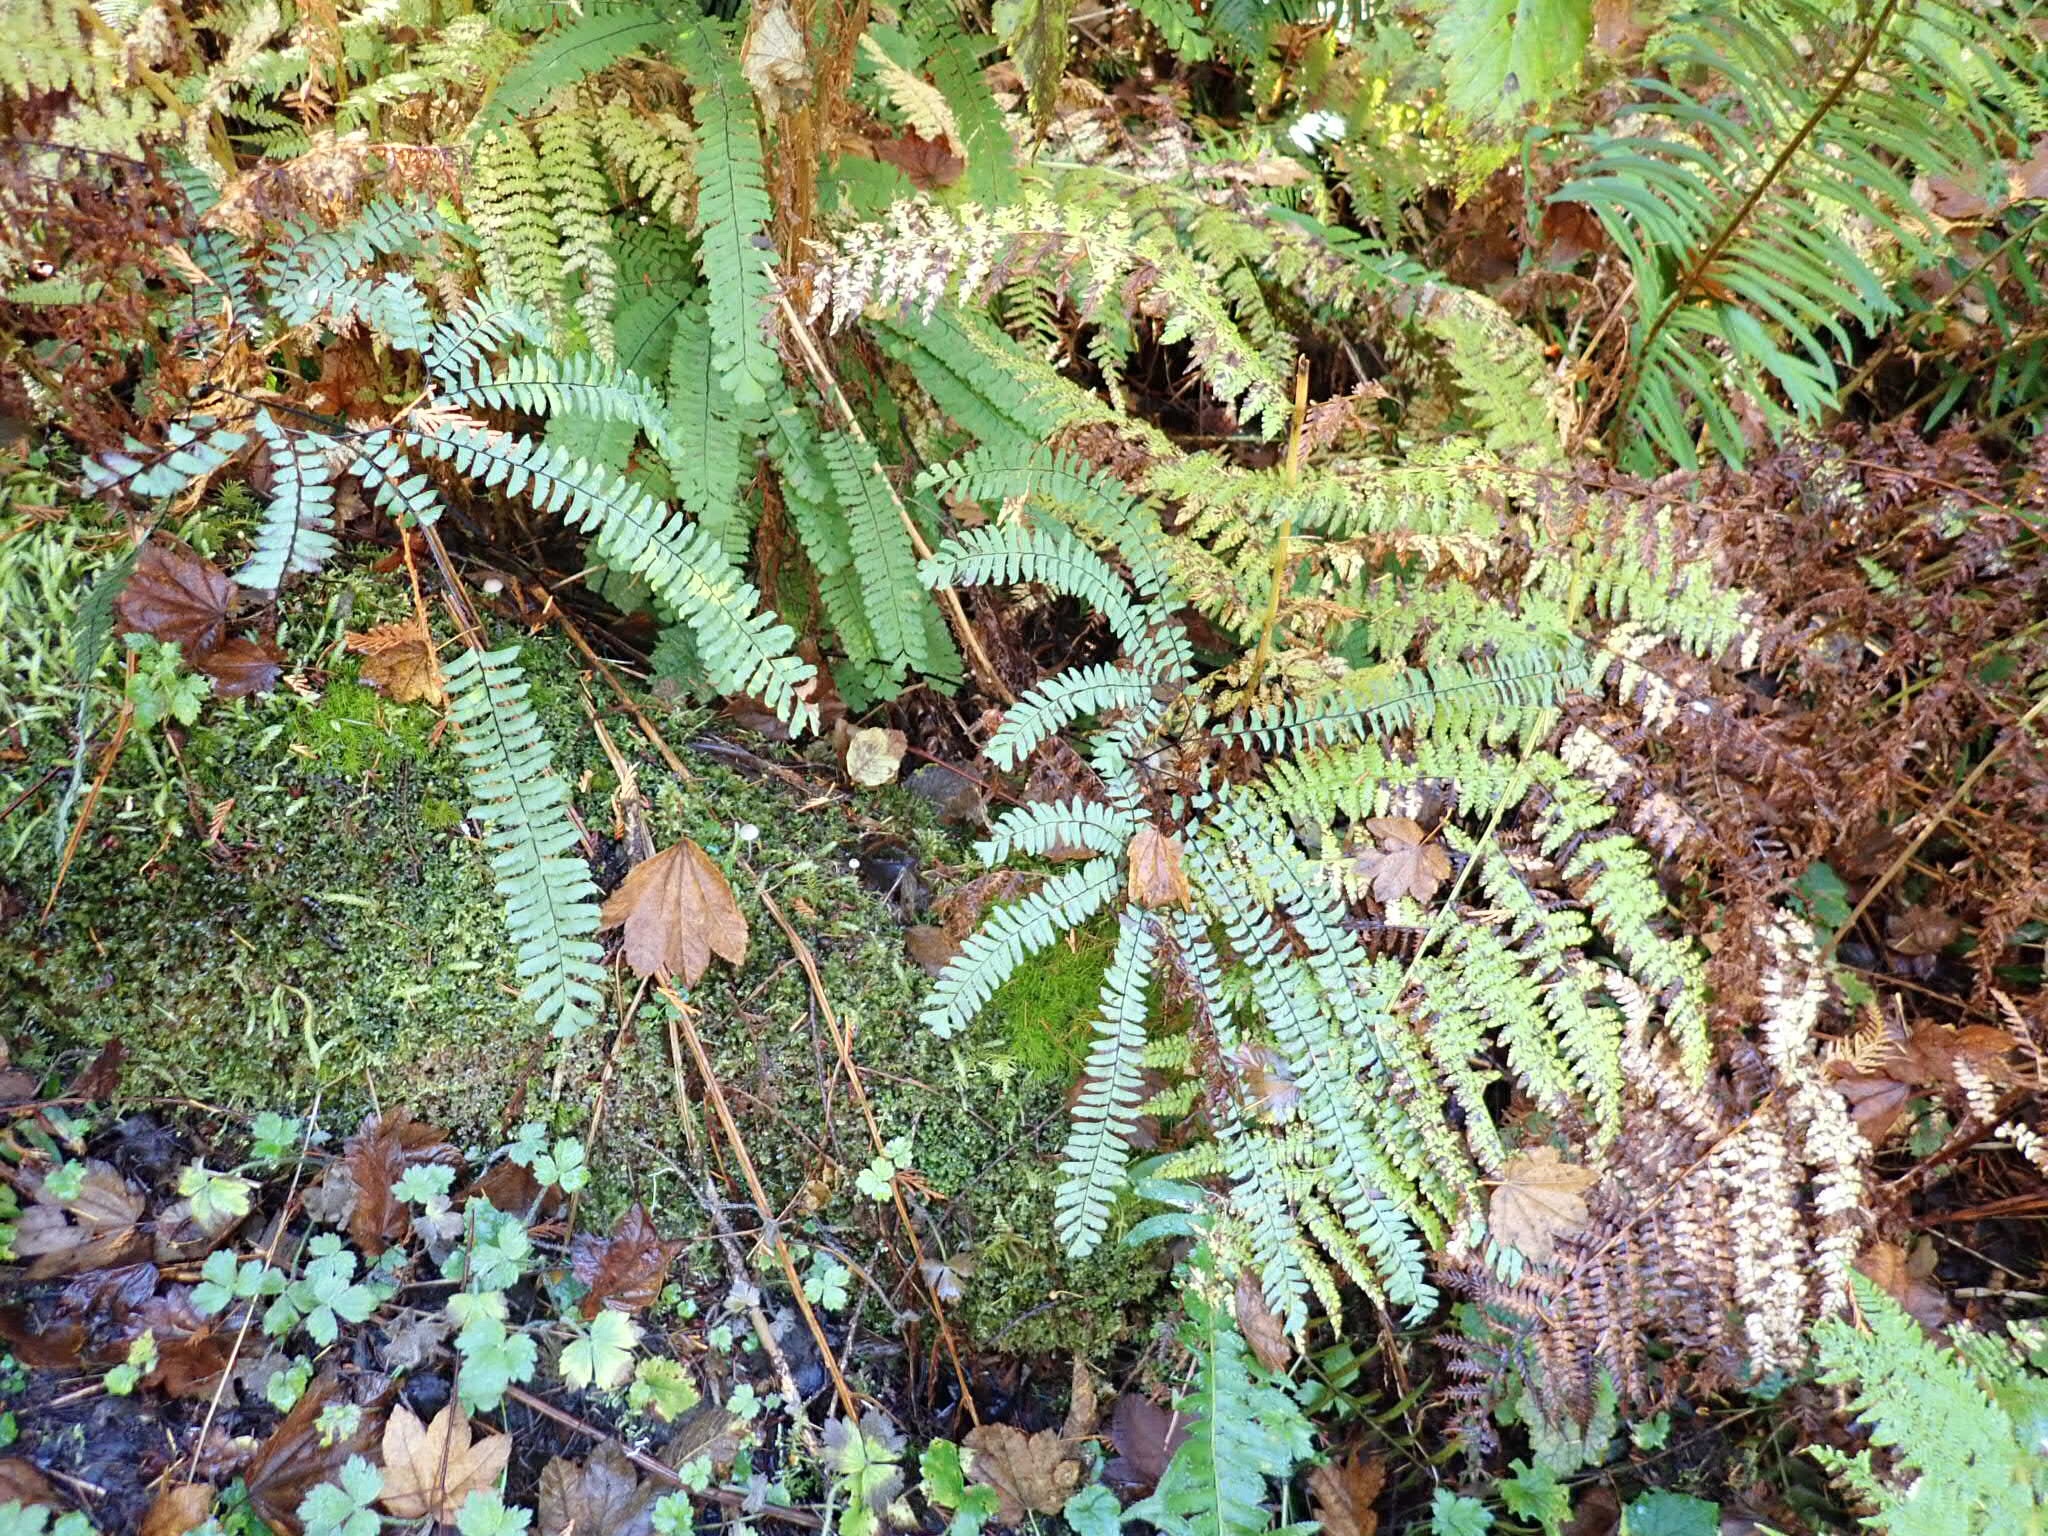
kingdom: Plantae
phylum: Tracheophyta
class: Polypodiopsida
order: Polypodiales
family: Pteridaceae
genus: Adiantum
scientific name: Adiantum aleuticum
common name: Aleutian maidenhair fern
